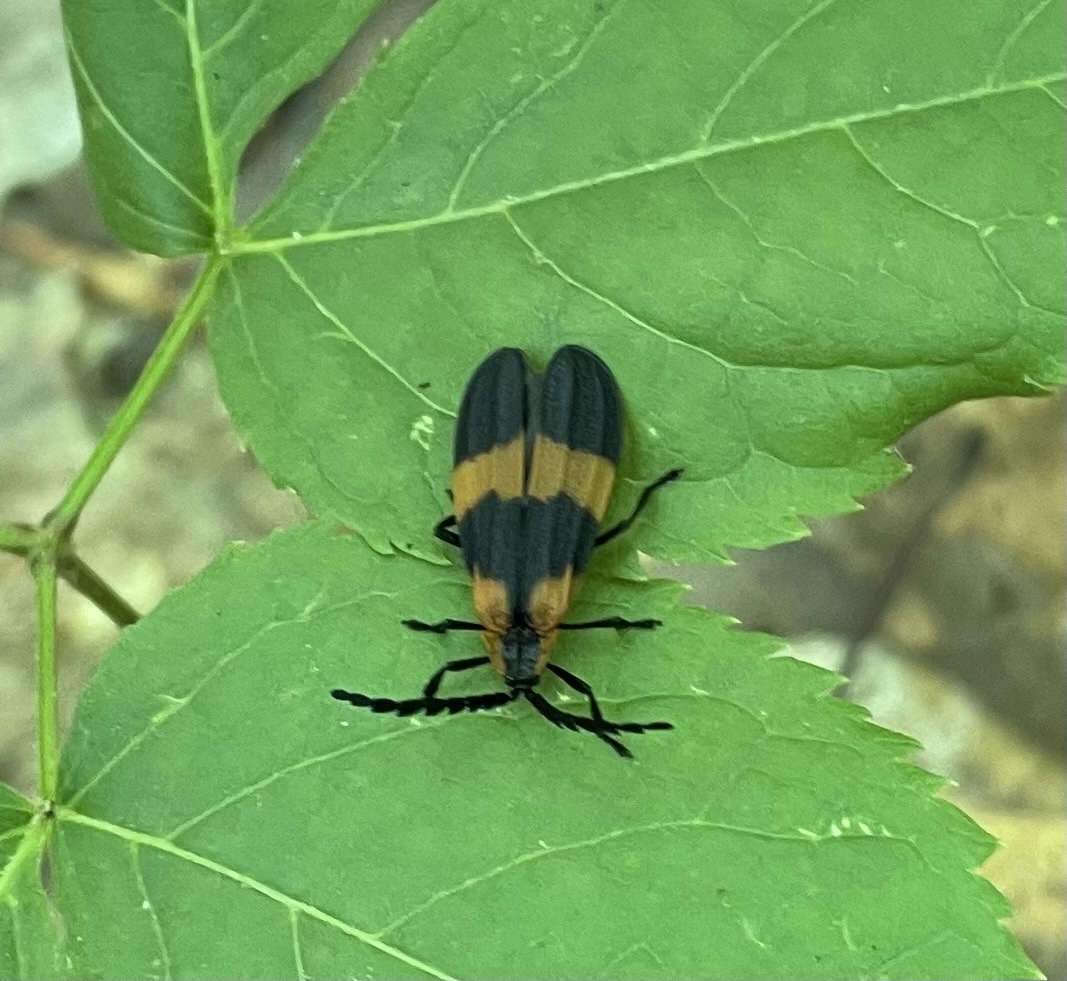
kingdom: Animalia
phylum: Arthropoda
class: Insecta
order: Coleoptera
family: Lycidae
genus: Calopteron
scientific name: Calopteron reticulatum
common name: Banded net-winged beetle
